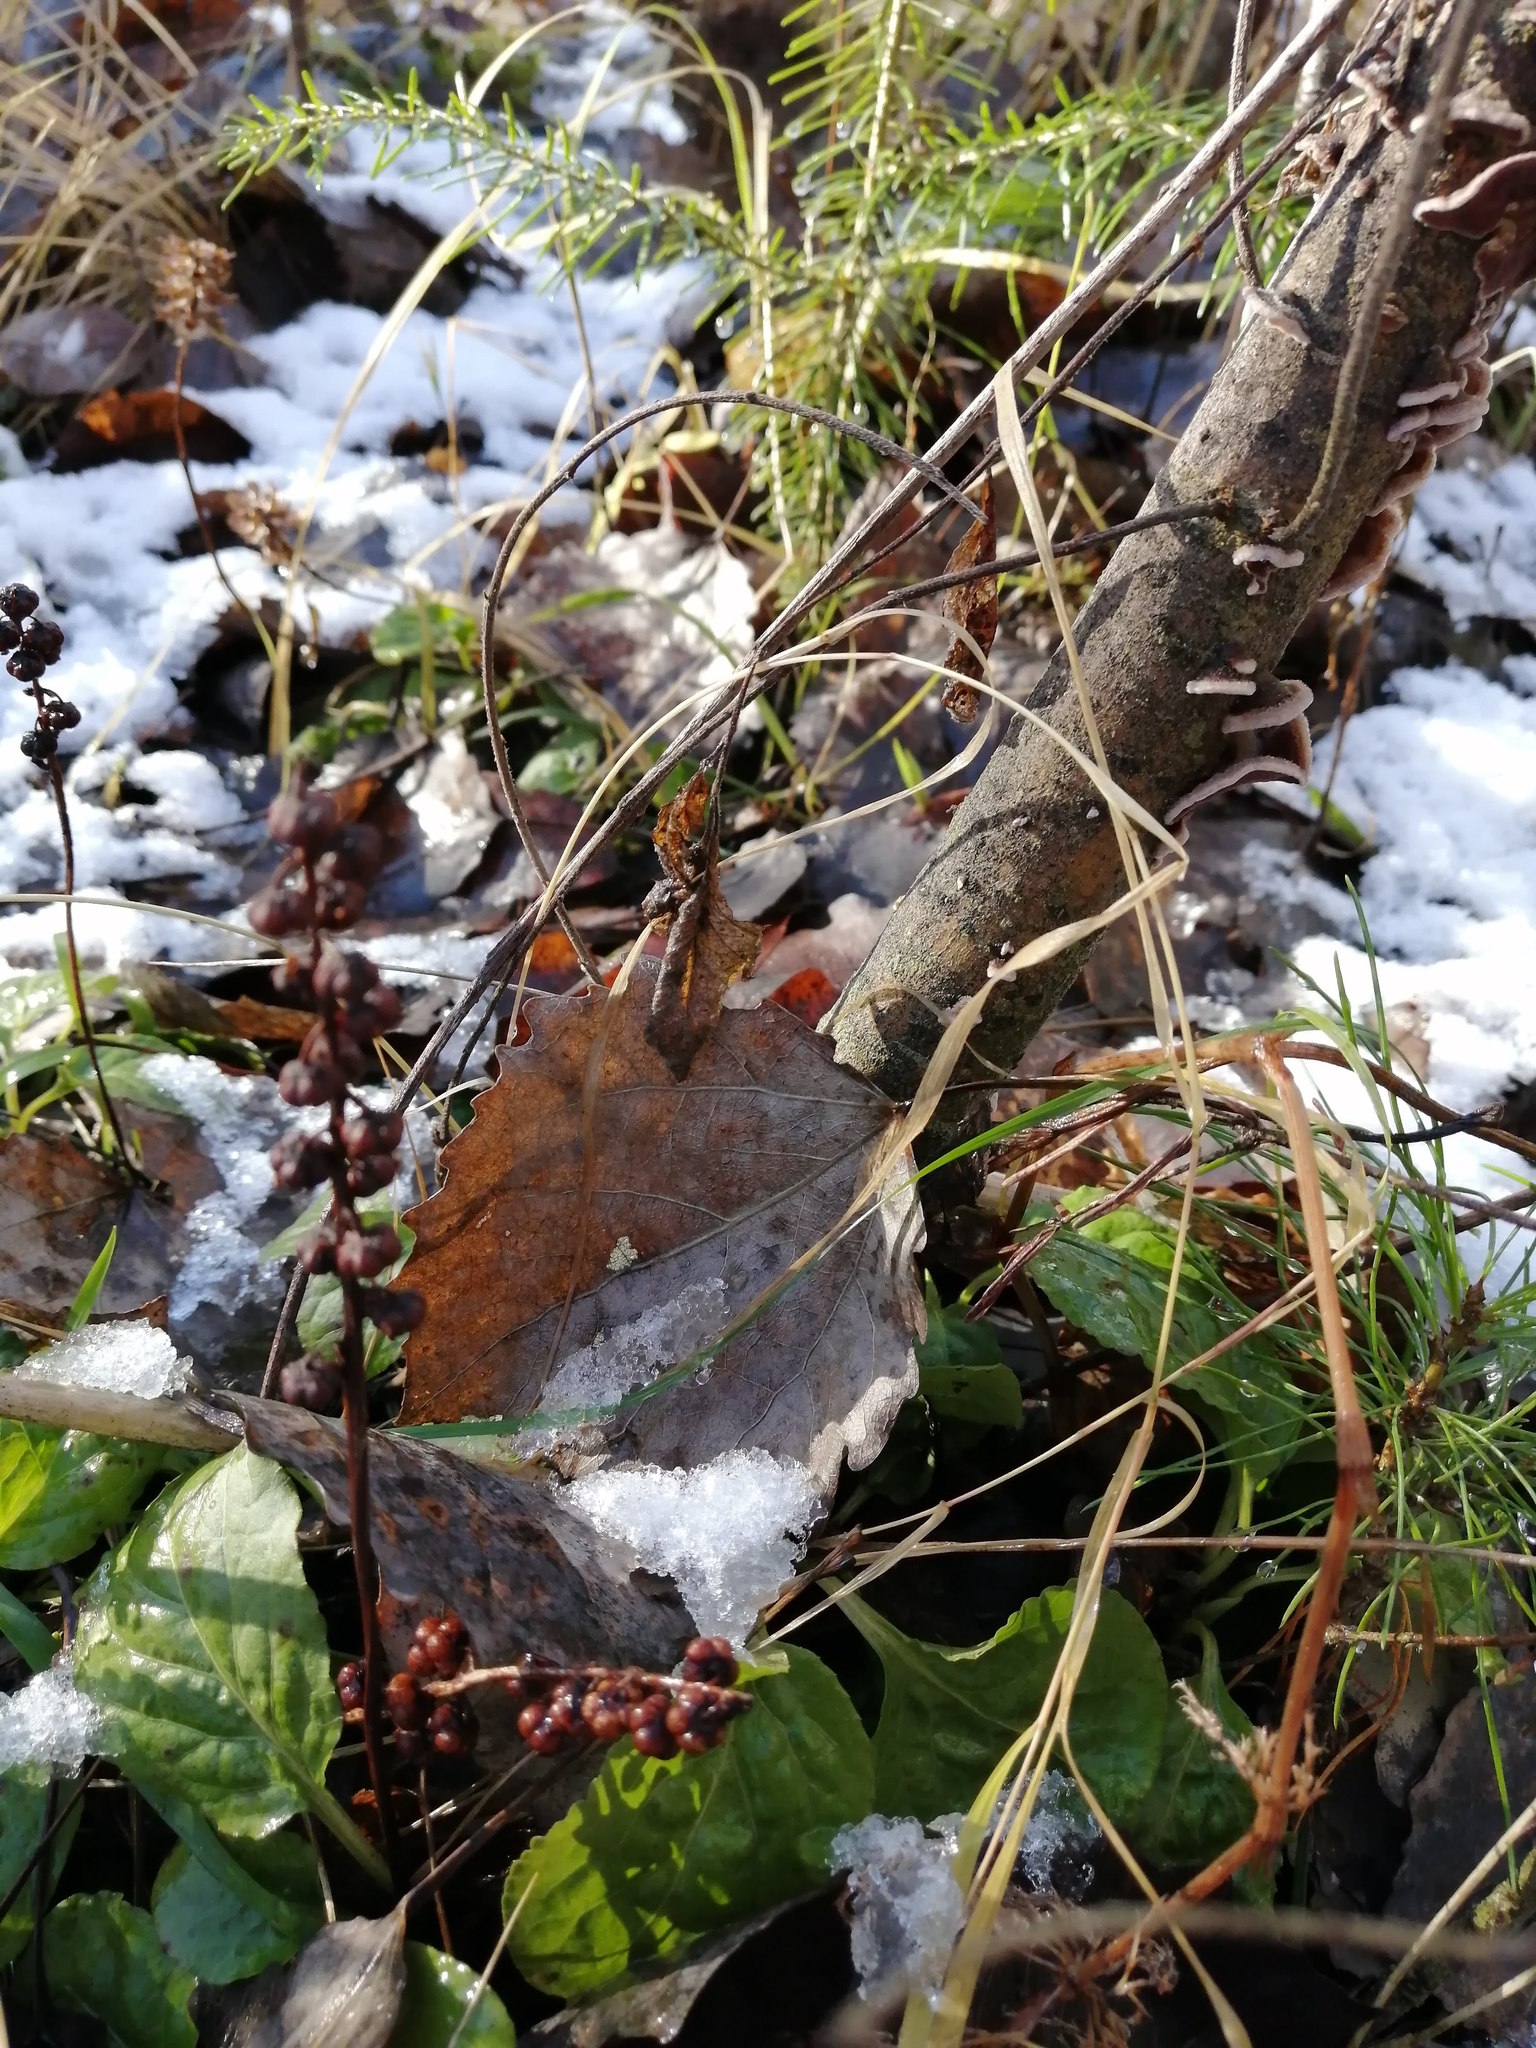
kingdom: Plantae
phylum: Tracheophyta
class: Magnoliopsida
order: Ericales
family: Ericaceae
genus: Pyrola
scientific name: Pyrola minor
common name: Common wintergreen
